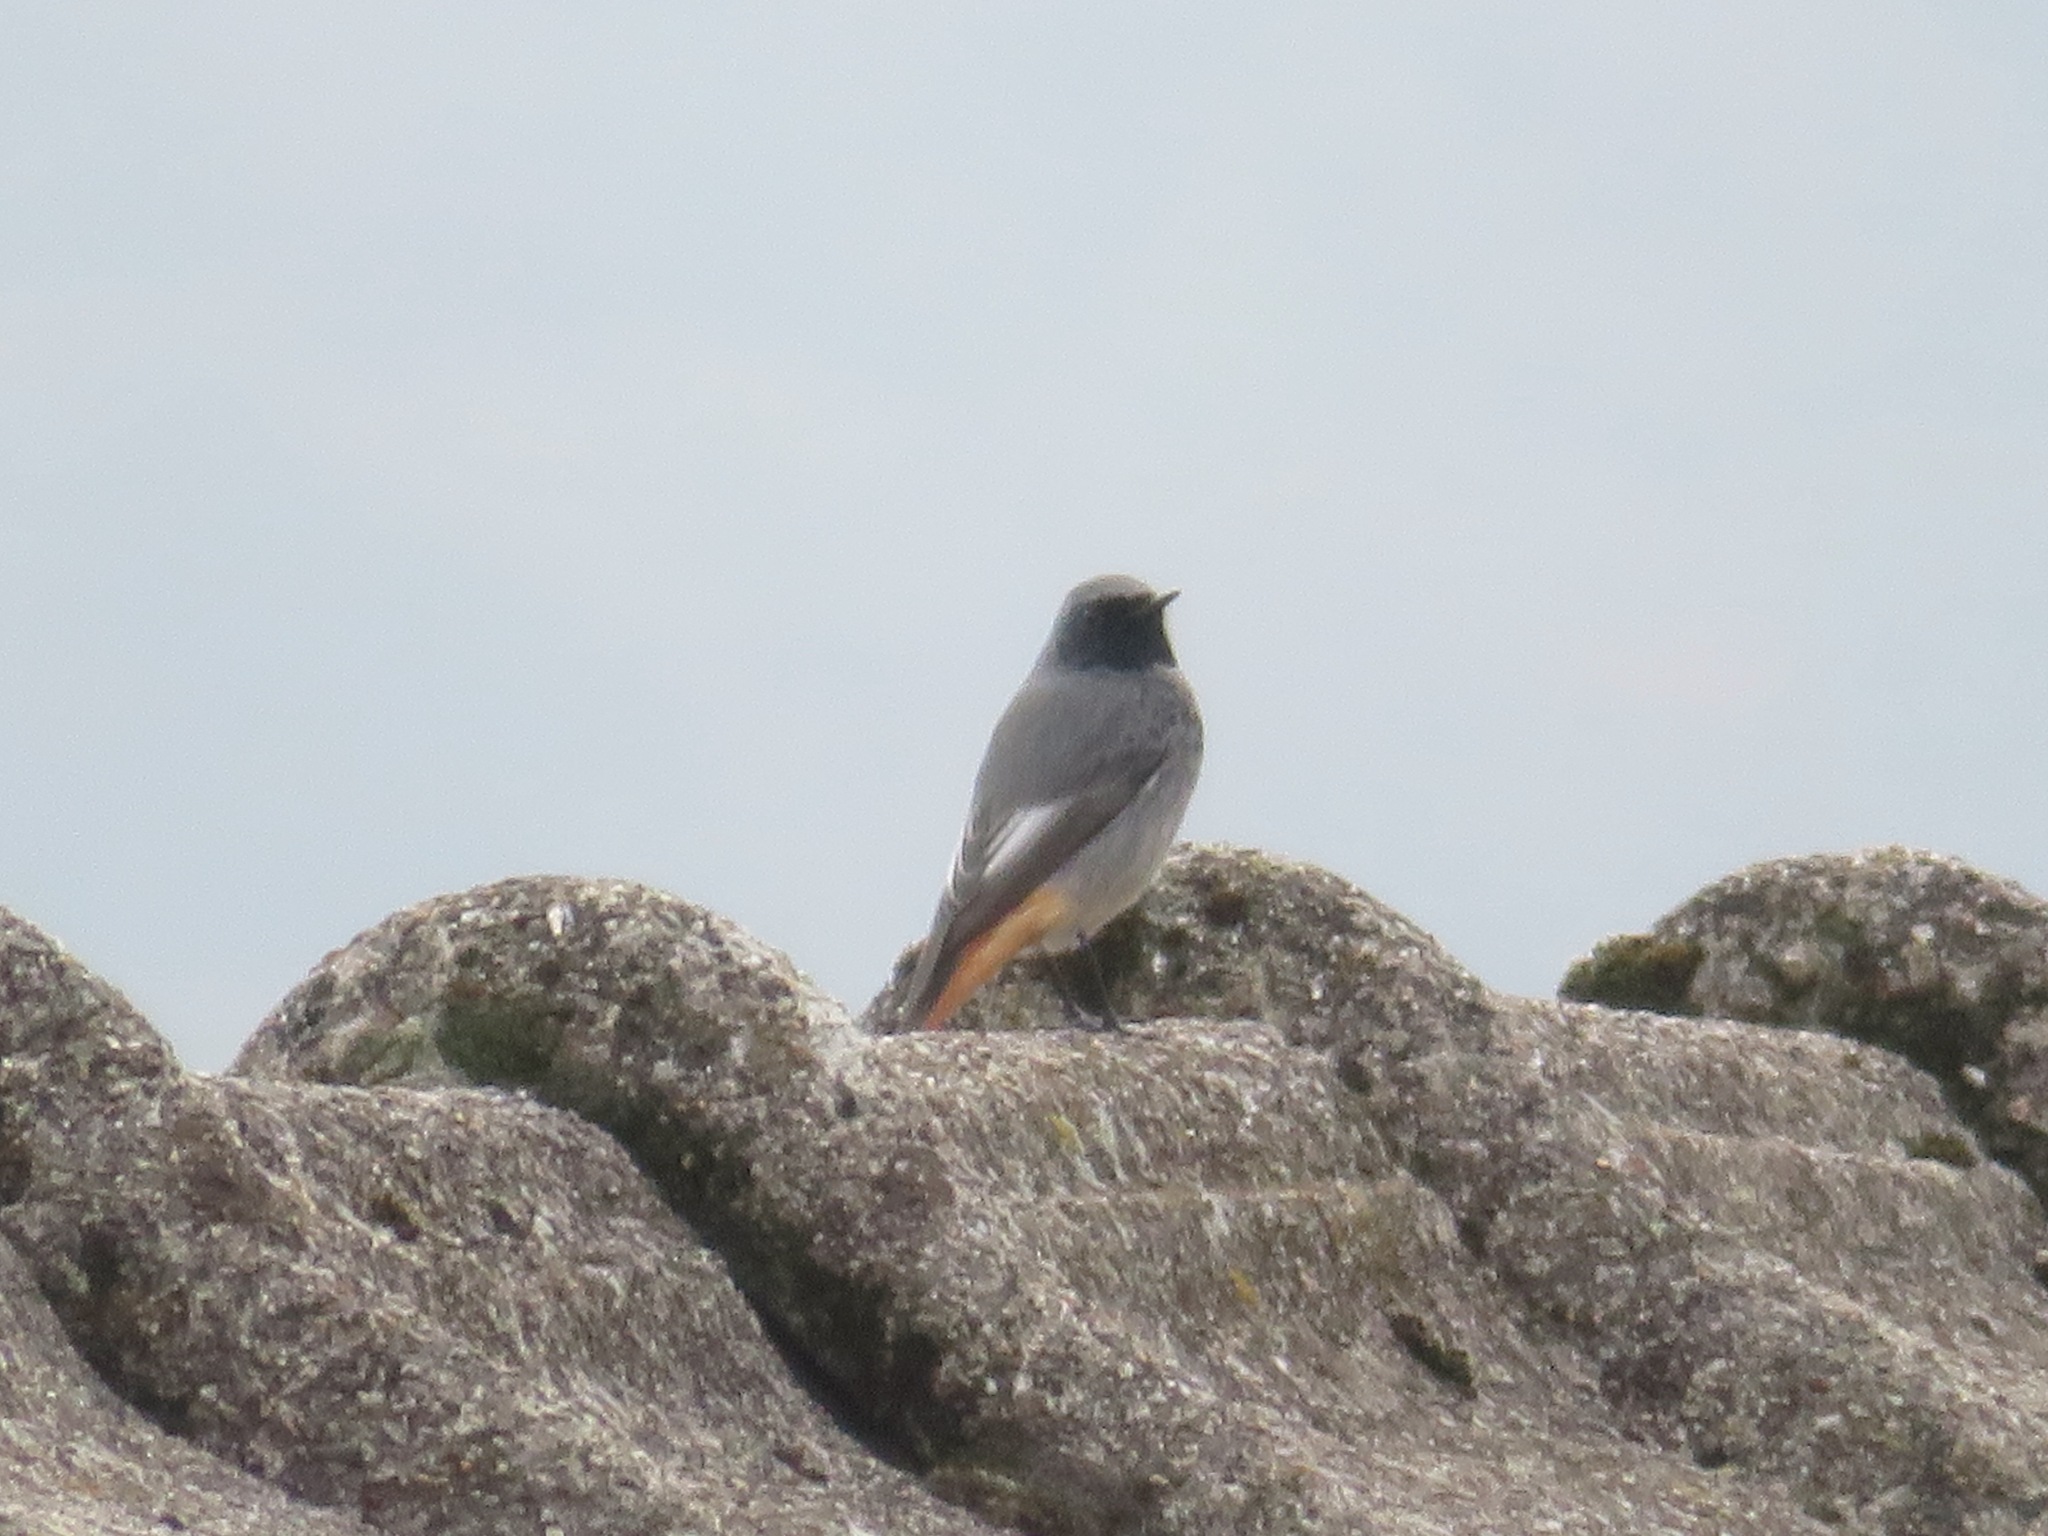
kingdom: Animalia
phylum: Chordata
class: Aves
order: Passeriformes
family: Muscicapidae
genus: Phoenicurus
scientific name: Phoenicurus ochruros
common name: Black redstart
